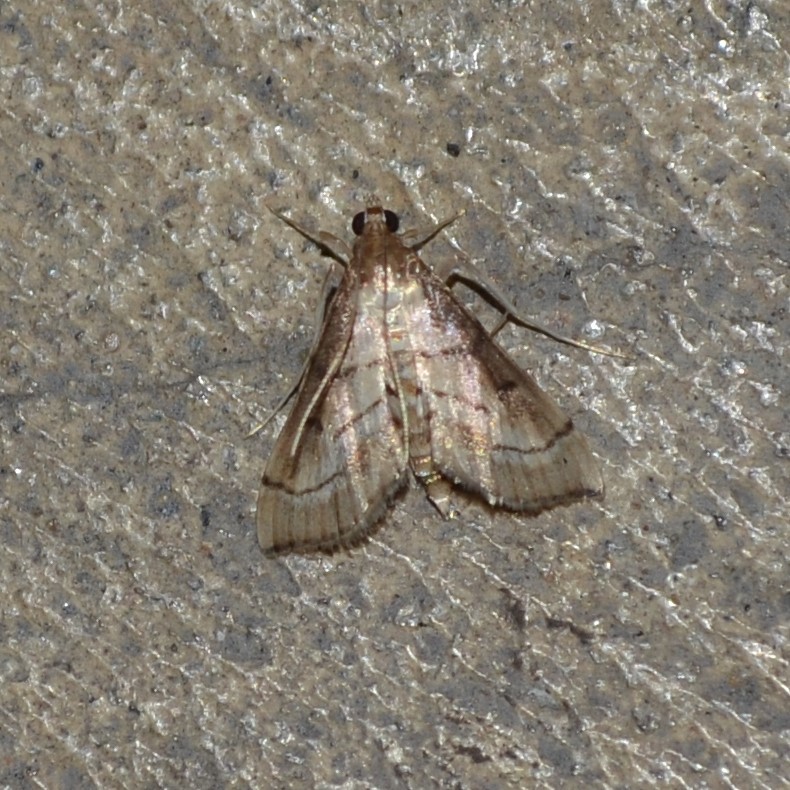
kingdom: Animalia
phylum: Arthropoda
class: Insecta
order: Lepidoptera
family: Crambidae
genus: Cnaphalocrocis
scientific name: Cnaphalocrocis Marasmia trapezalis
